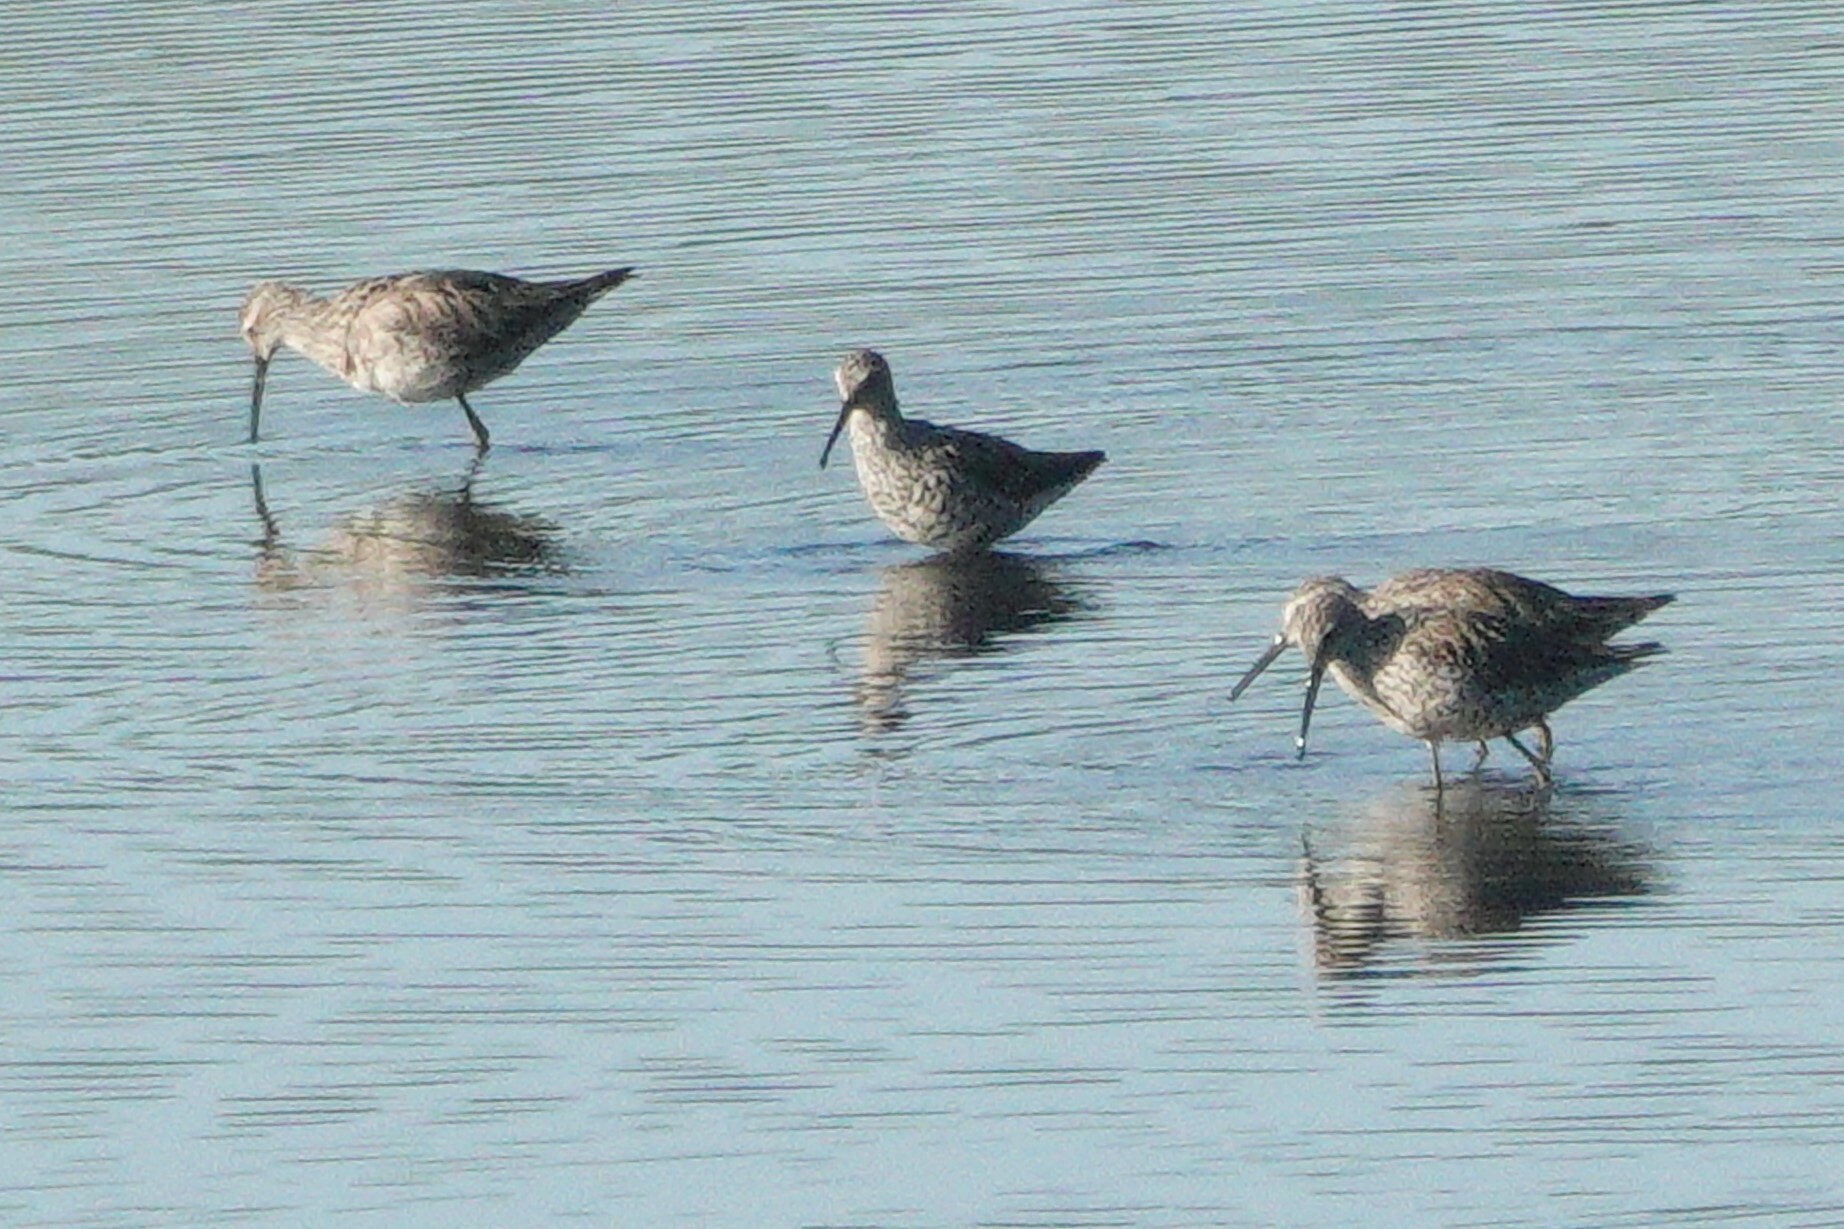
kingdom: Animalia
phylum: Chordata
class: Aves
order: Charadriiformes
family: Scolopacidae
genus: Calidris
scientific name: Calidris himantopus
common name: Stilt sandpiper
